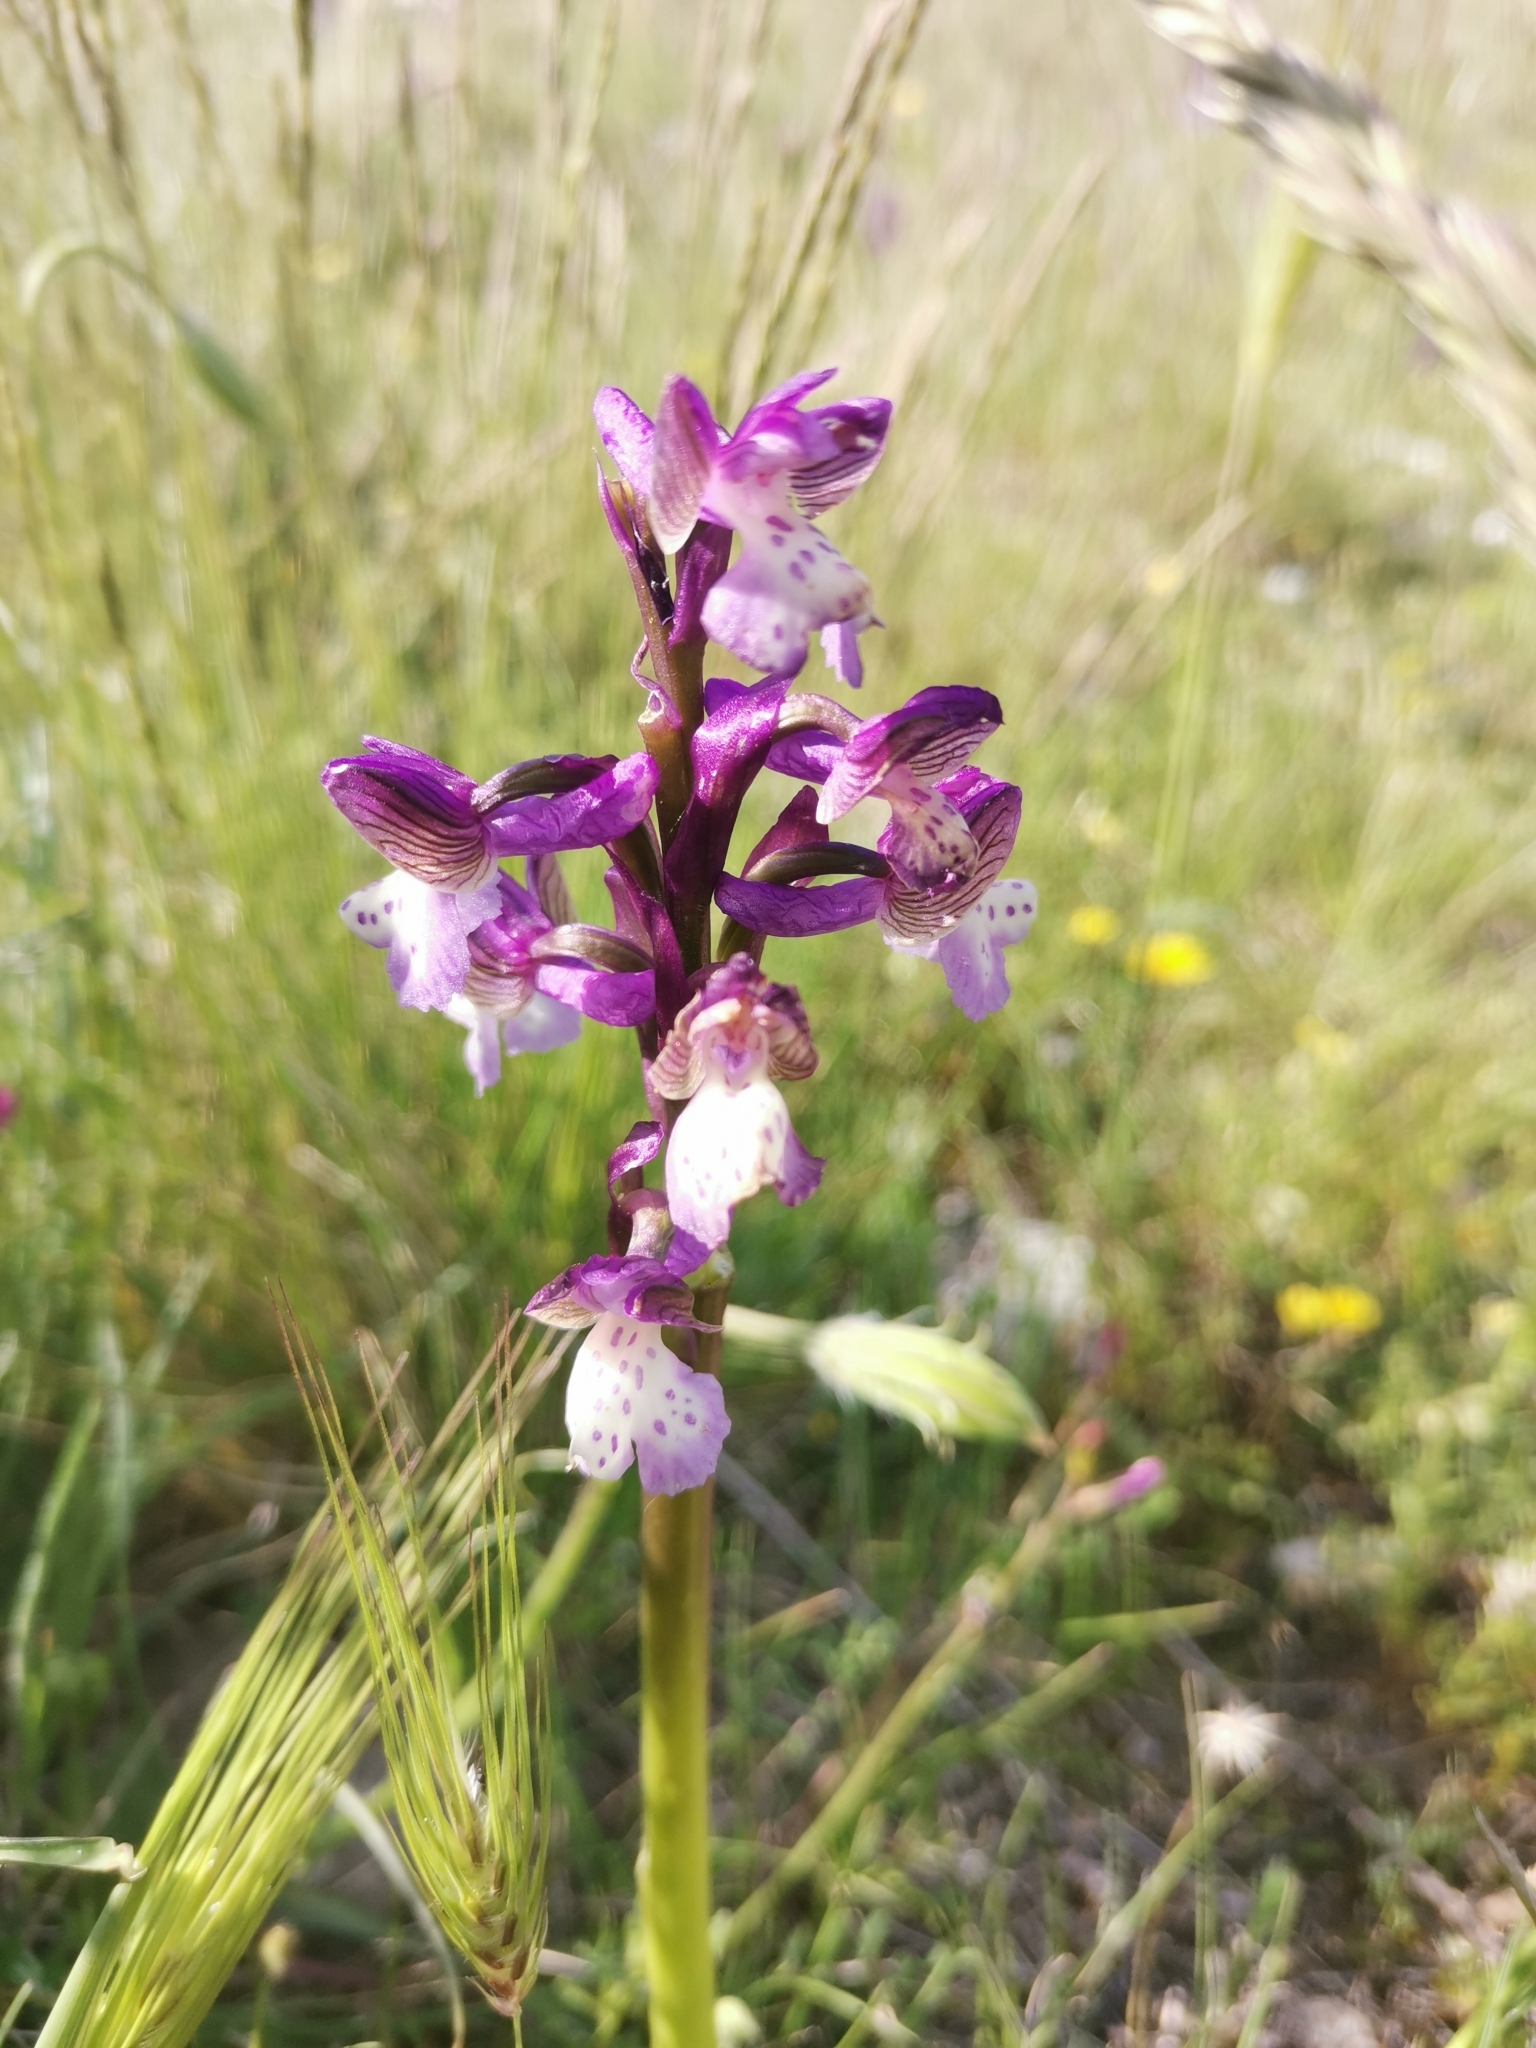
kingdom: Plantae
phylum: Tracheophyta
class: Liliopsida
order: Asparagales
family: Orchidaceae
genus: Anacamptis
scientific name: Anacamptis morio
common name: Green-winged orchid
